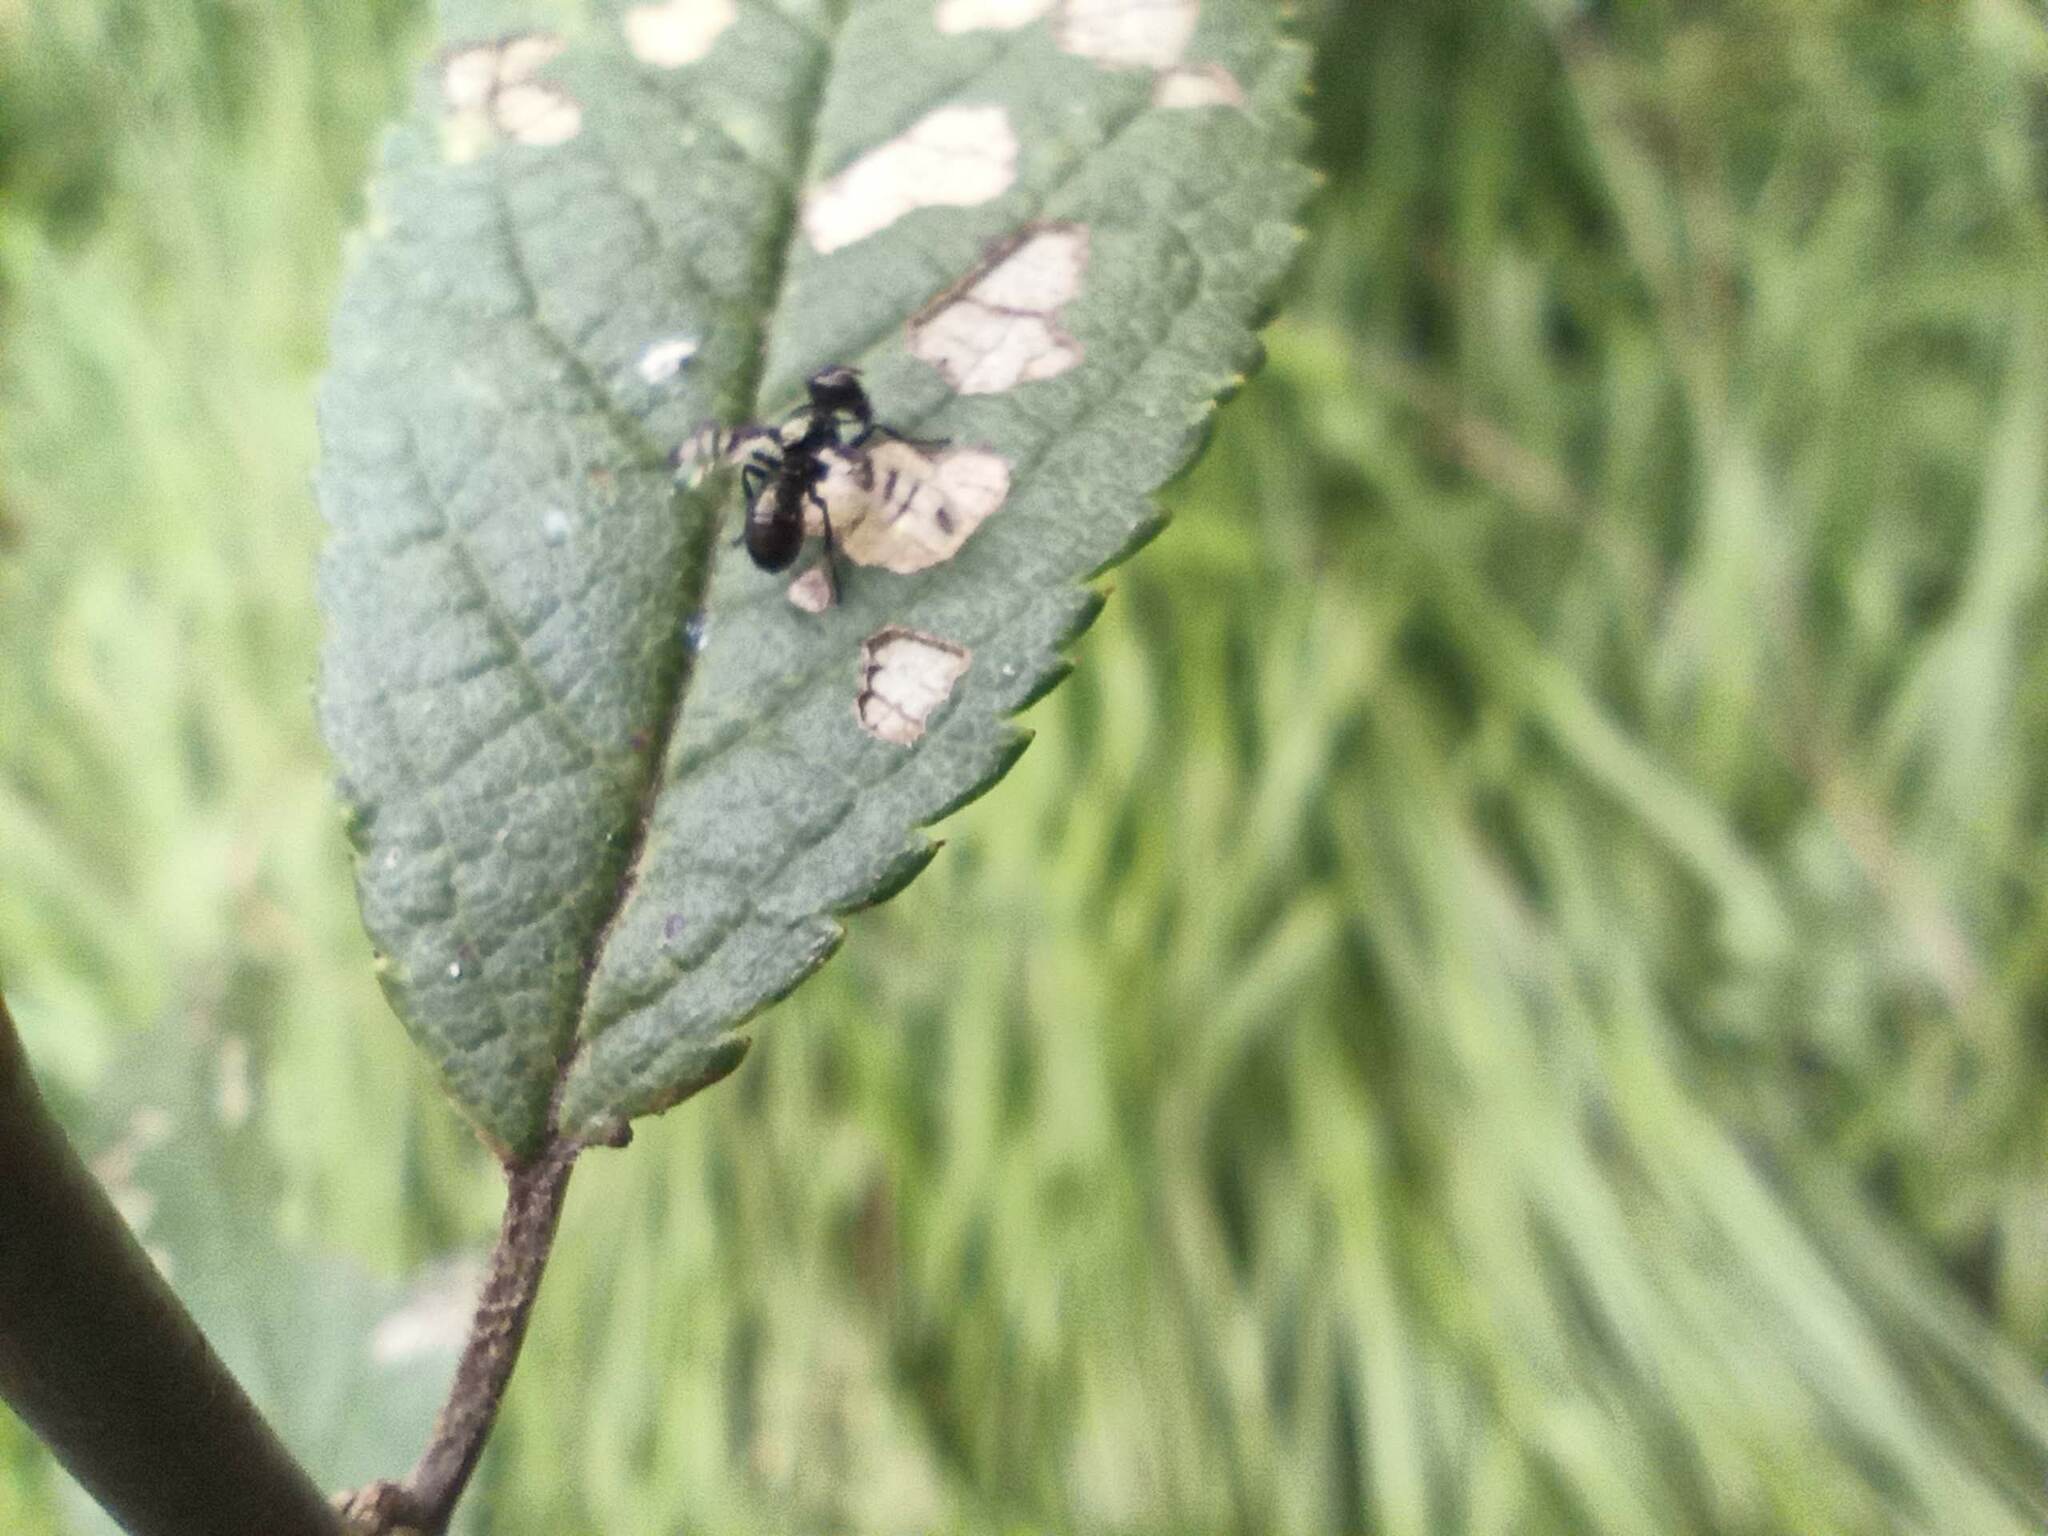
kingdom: Animalia
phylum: Arthropoda
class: Insecta
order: Diptera
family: Platystomatidae
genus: Rivellia
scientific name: Rivellia syngenesiae
